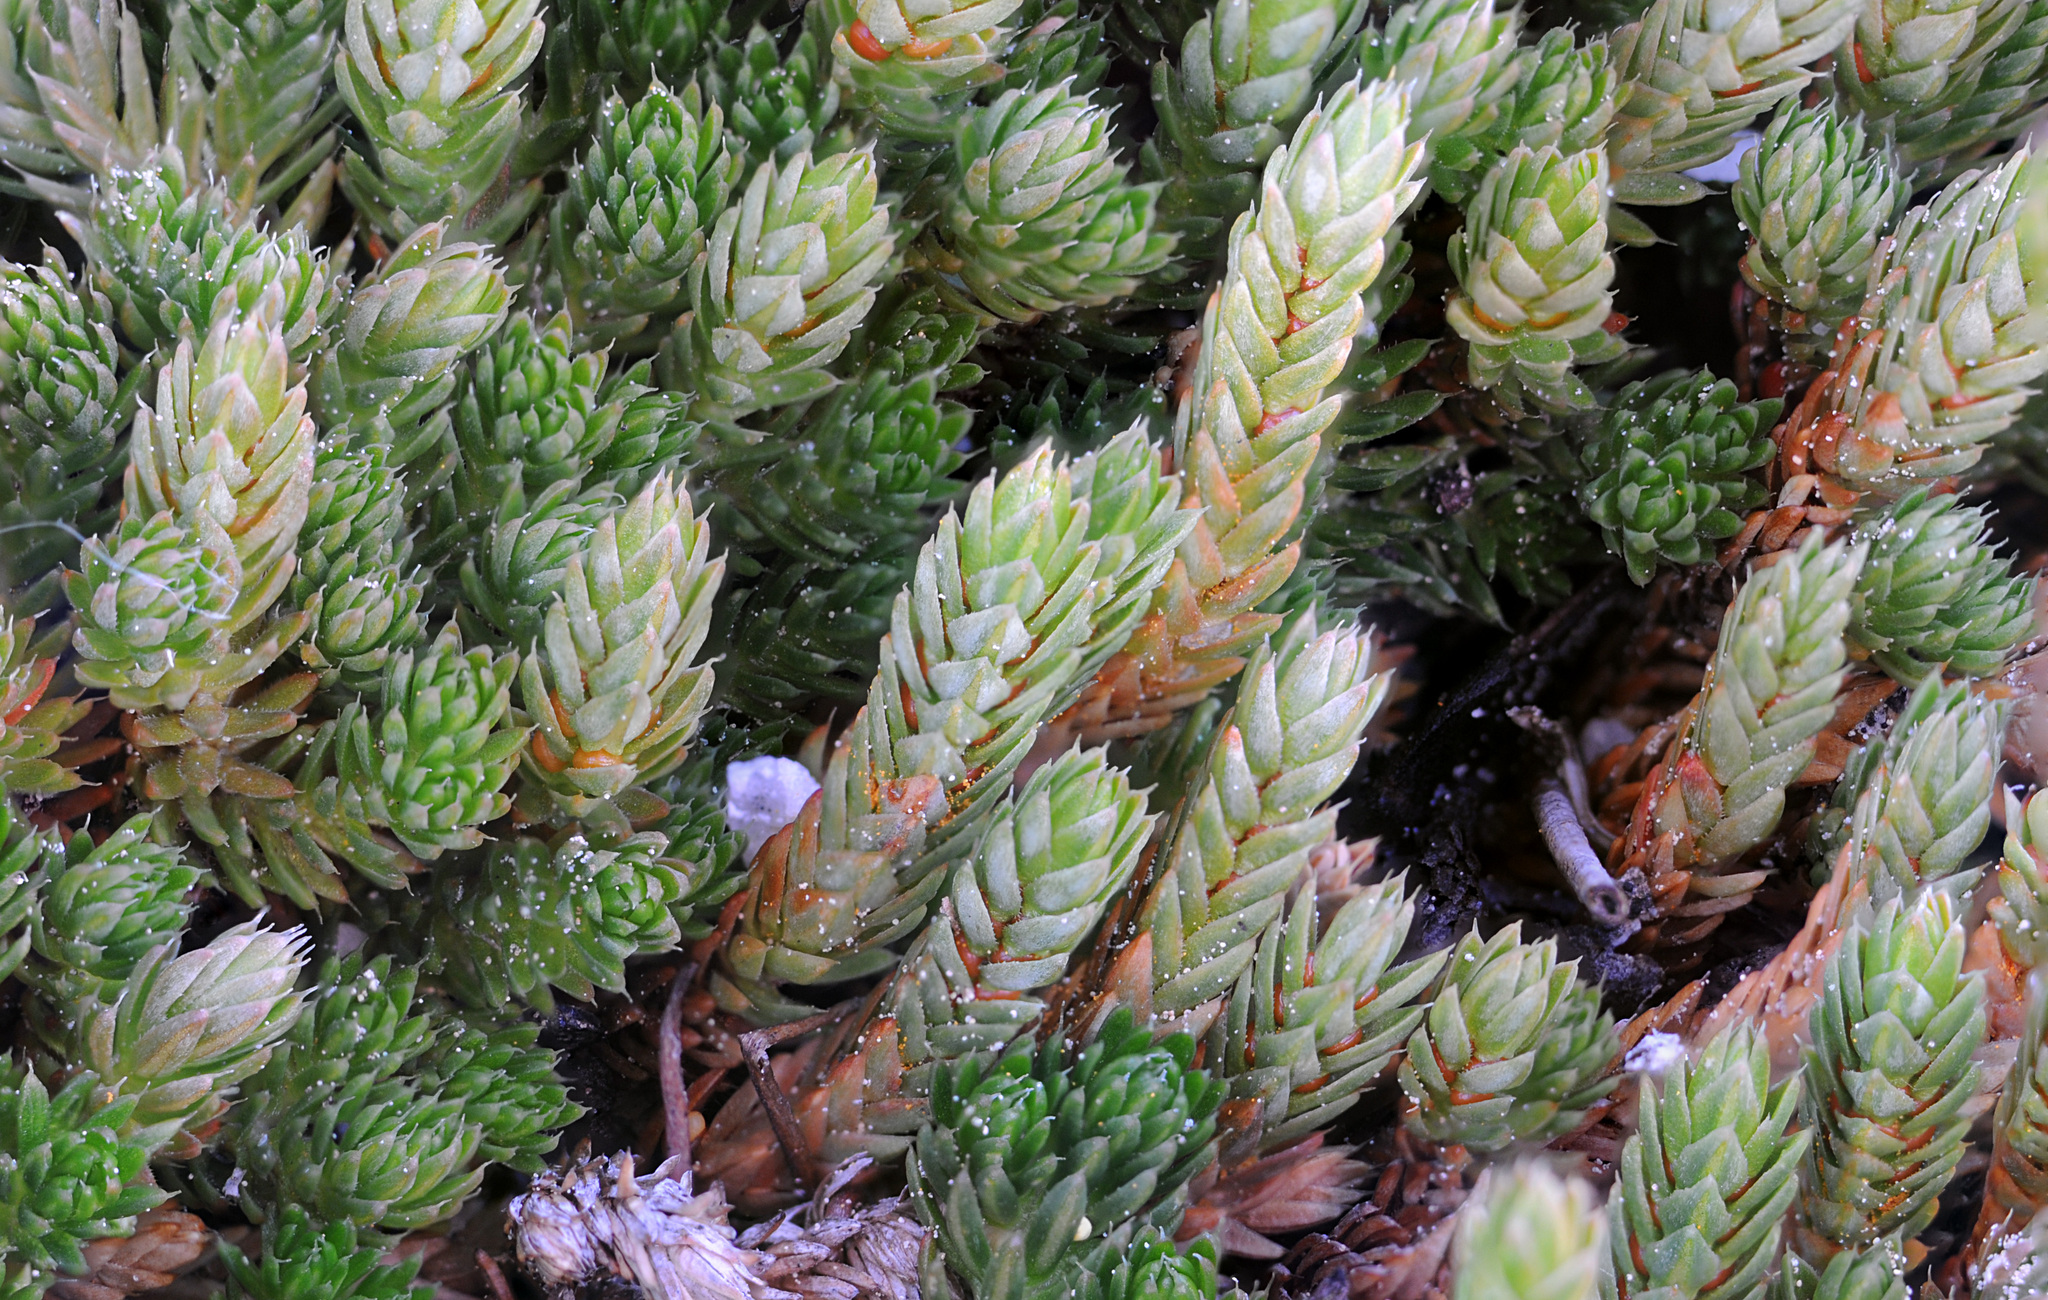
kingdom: Plantae
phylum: Tracheophyta
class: Lycopodiopsida
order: Selaginellales
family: Selaginellaceae
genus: Selaginella
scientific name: Selaginella watsonii
